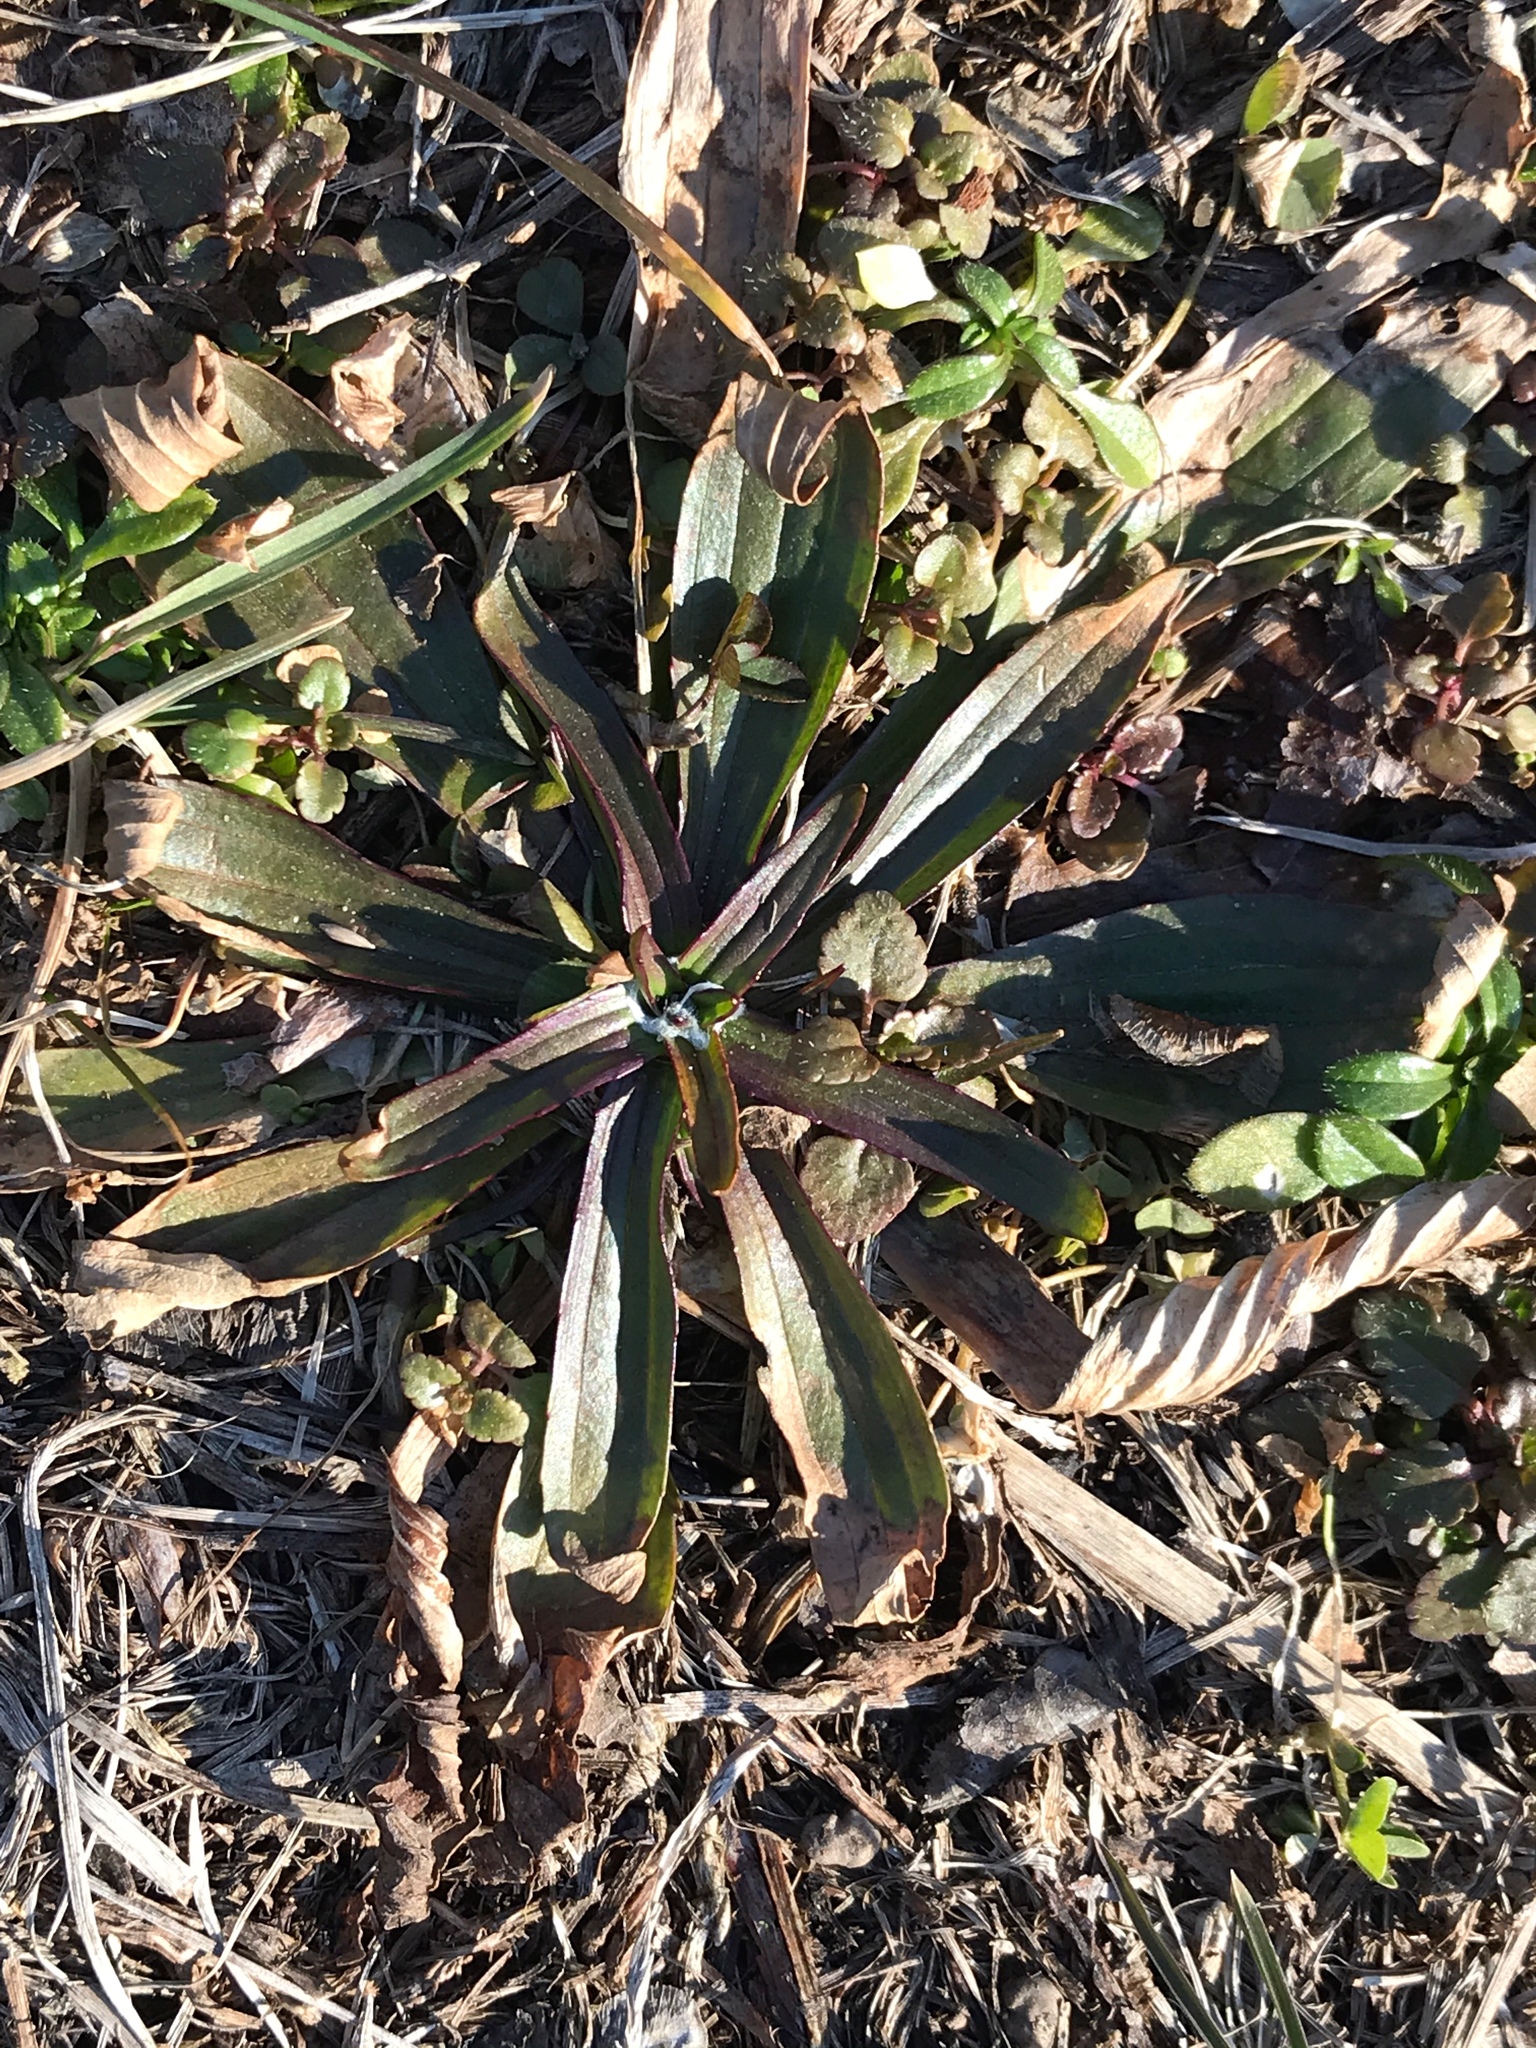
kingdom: Plantae
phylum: Tracheophyta
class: Magnoliopsida
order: Lamiales
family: Plantaginaceae
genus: Plantago
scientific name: Plantago lanceolata
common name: Ribwort plantain
